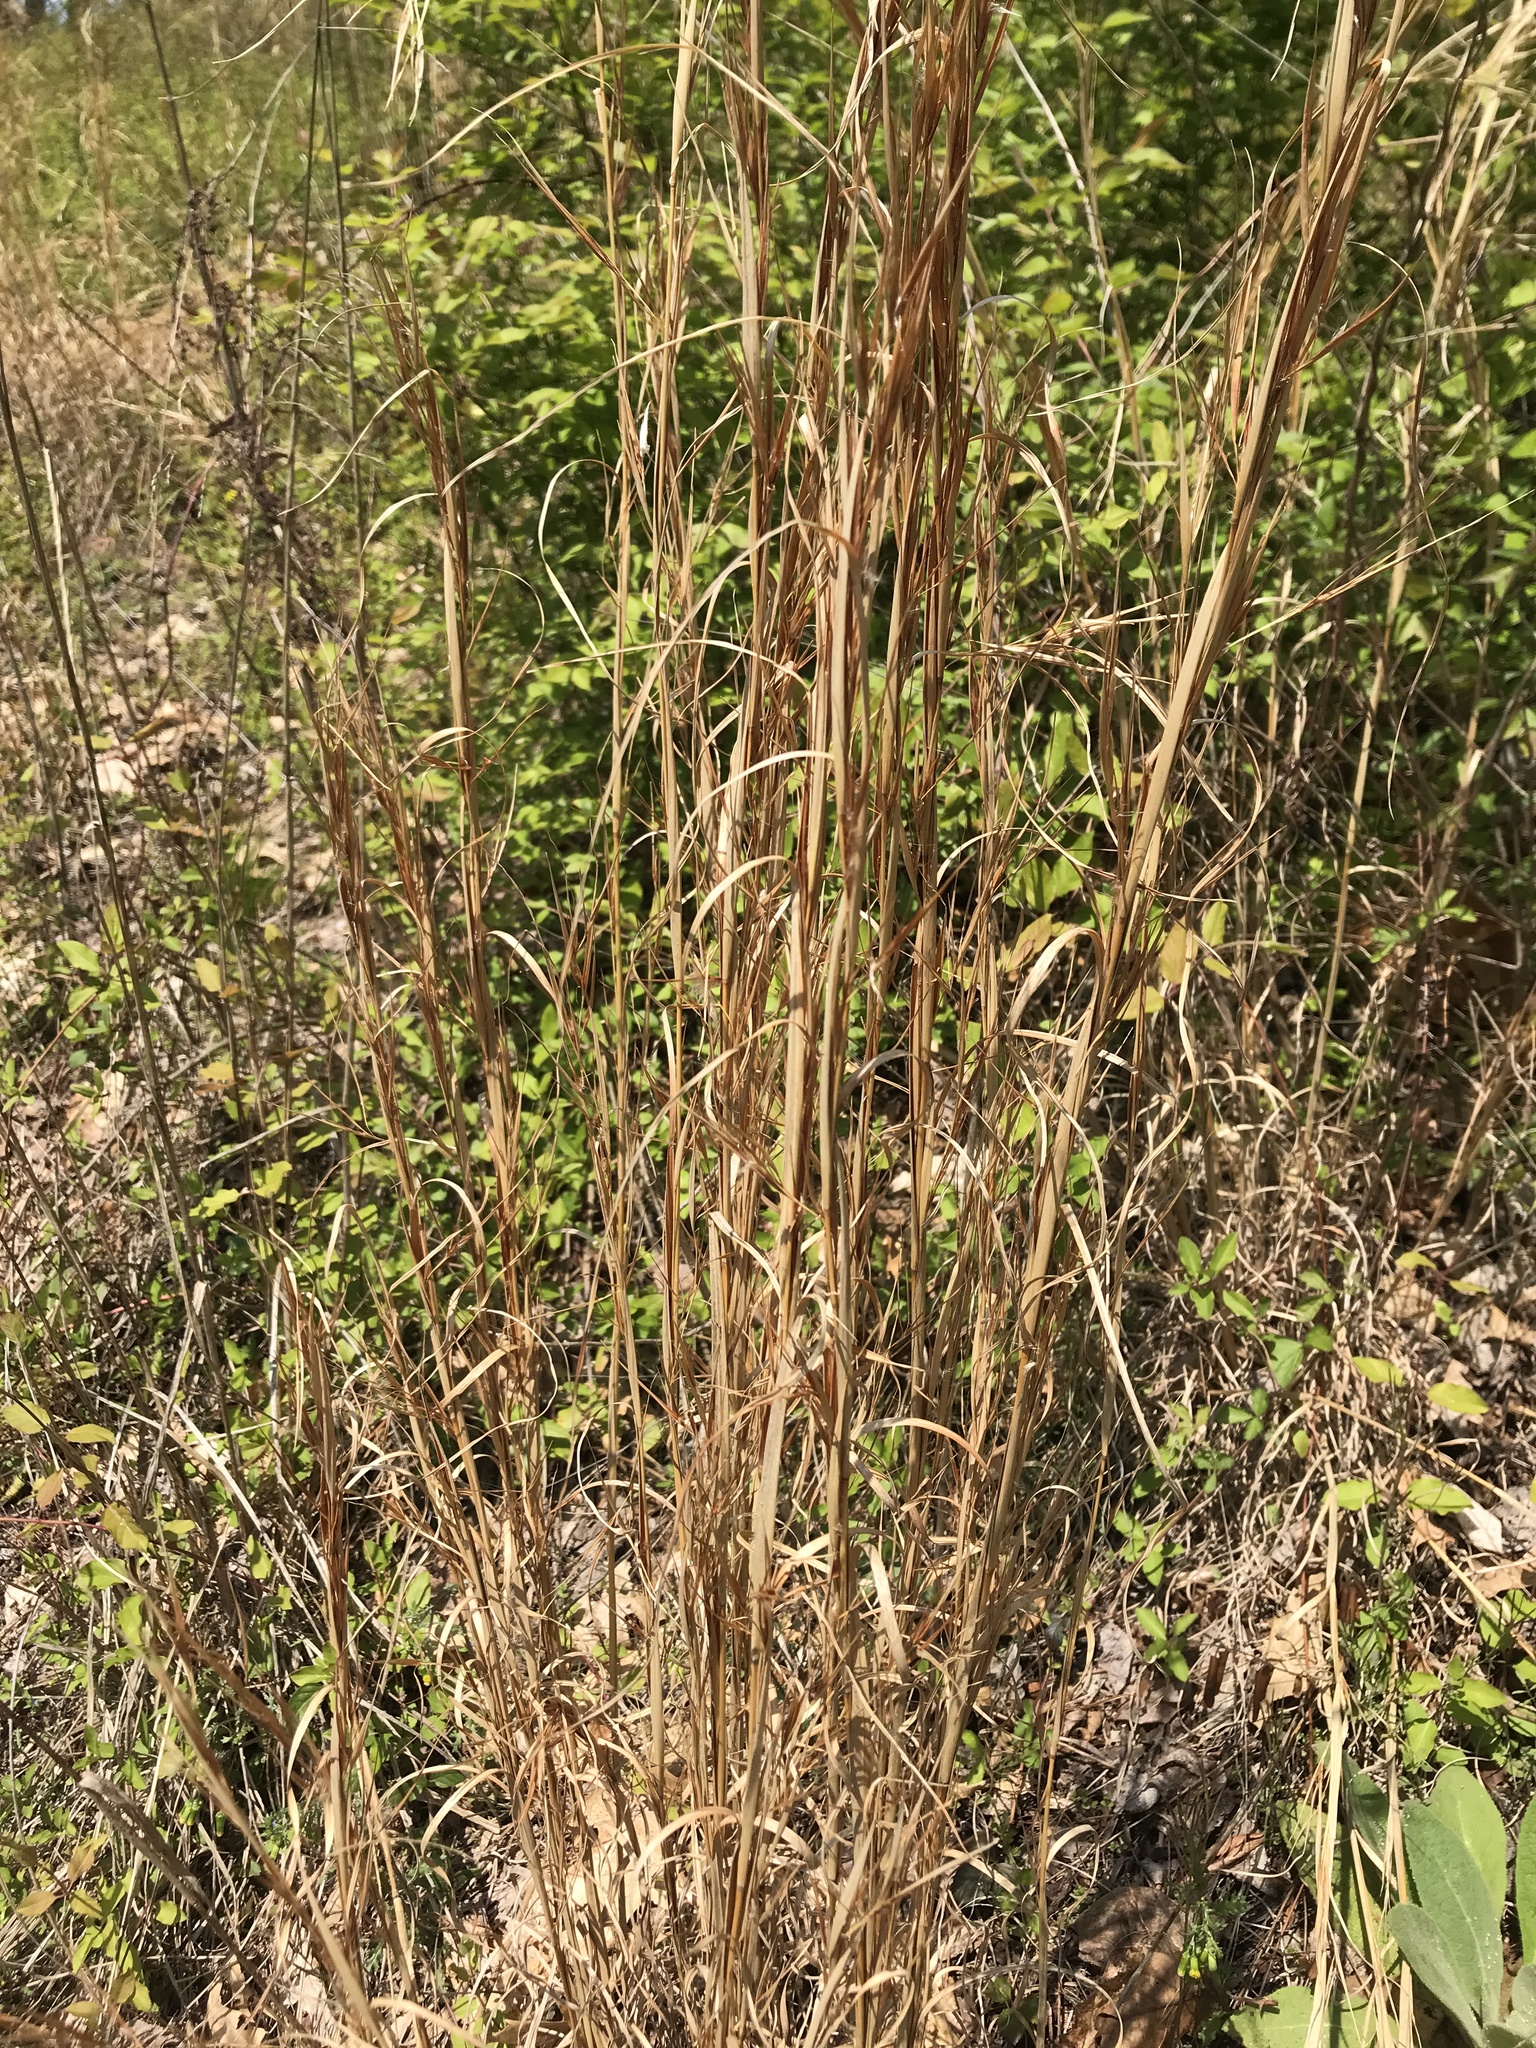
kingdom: Plantae
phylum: Tracheophyta
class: Liliopsida
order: Poales
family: Poaceae
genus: Andropogon
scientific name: Andropogon virginicus
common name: Broomsedge bluestem
